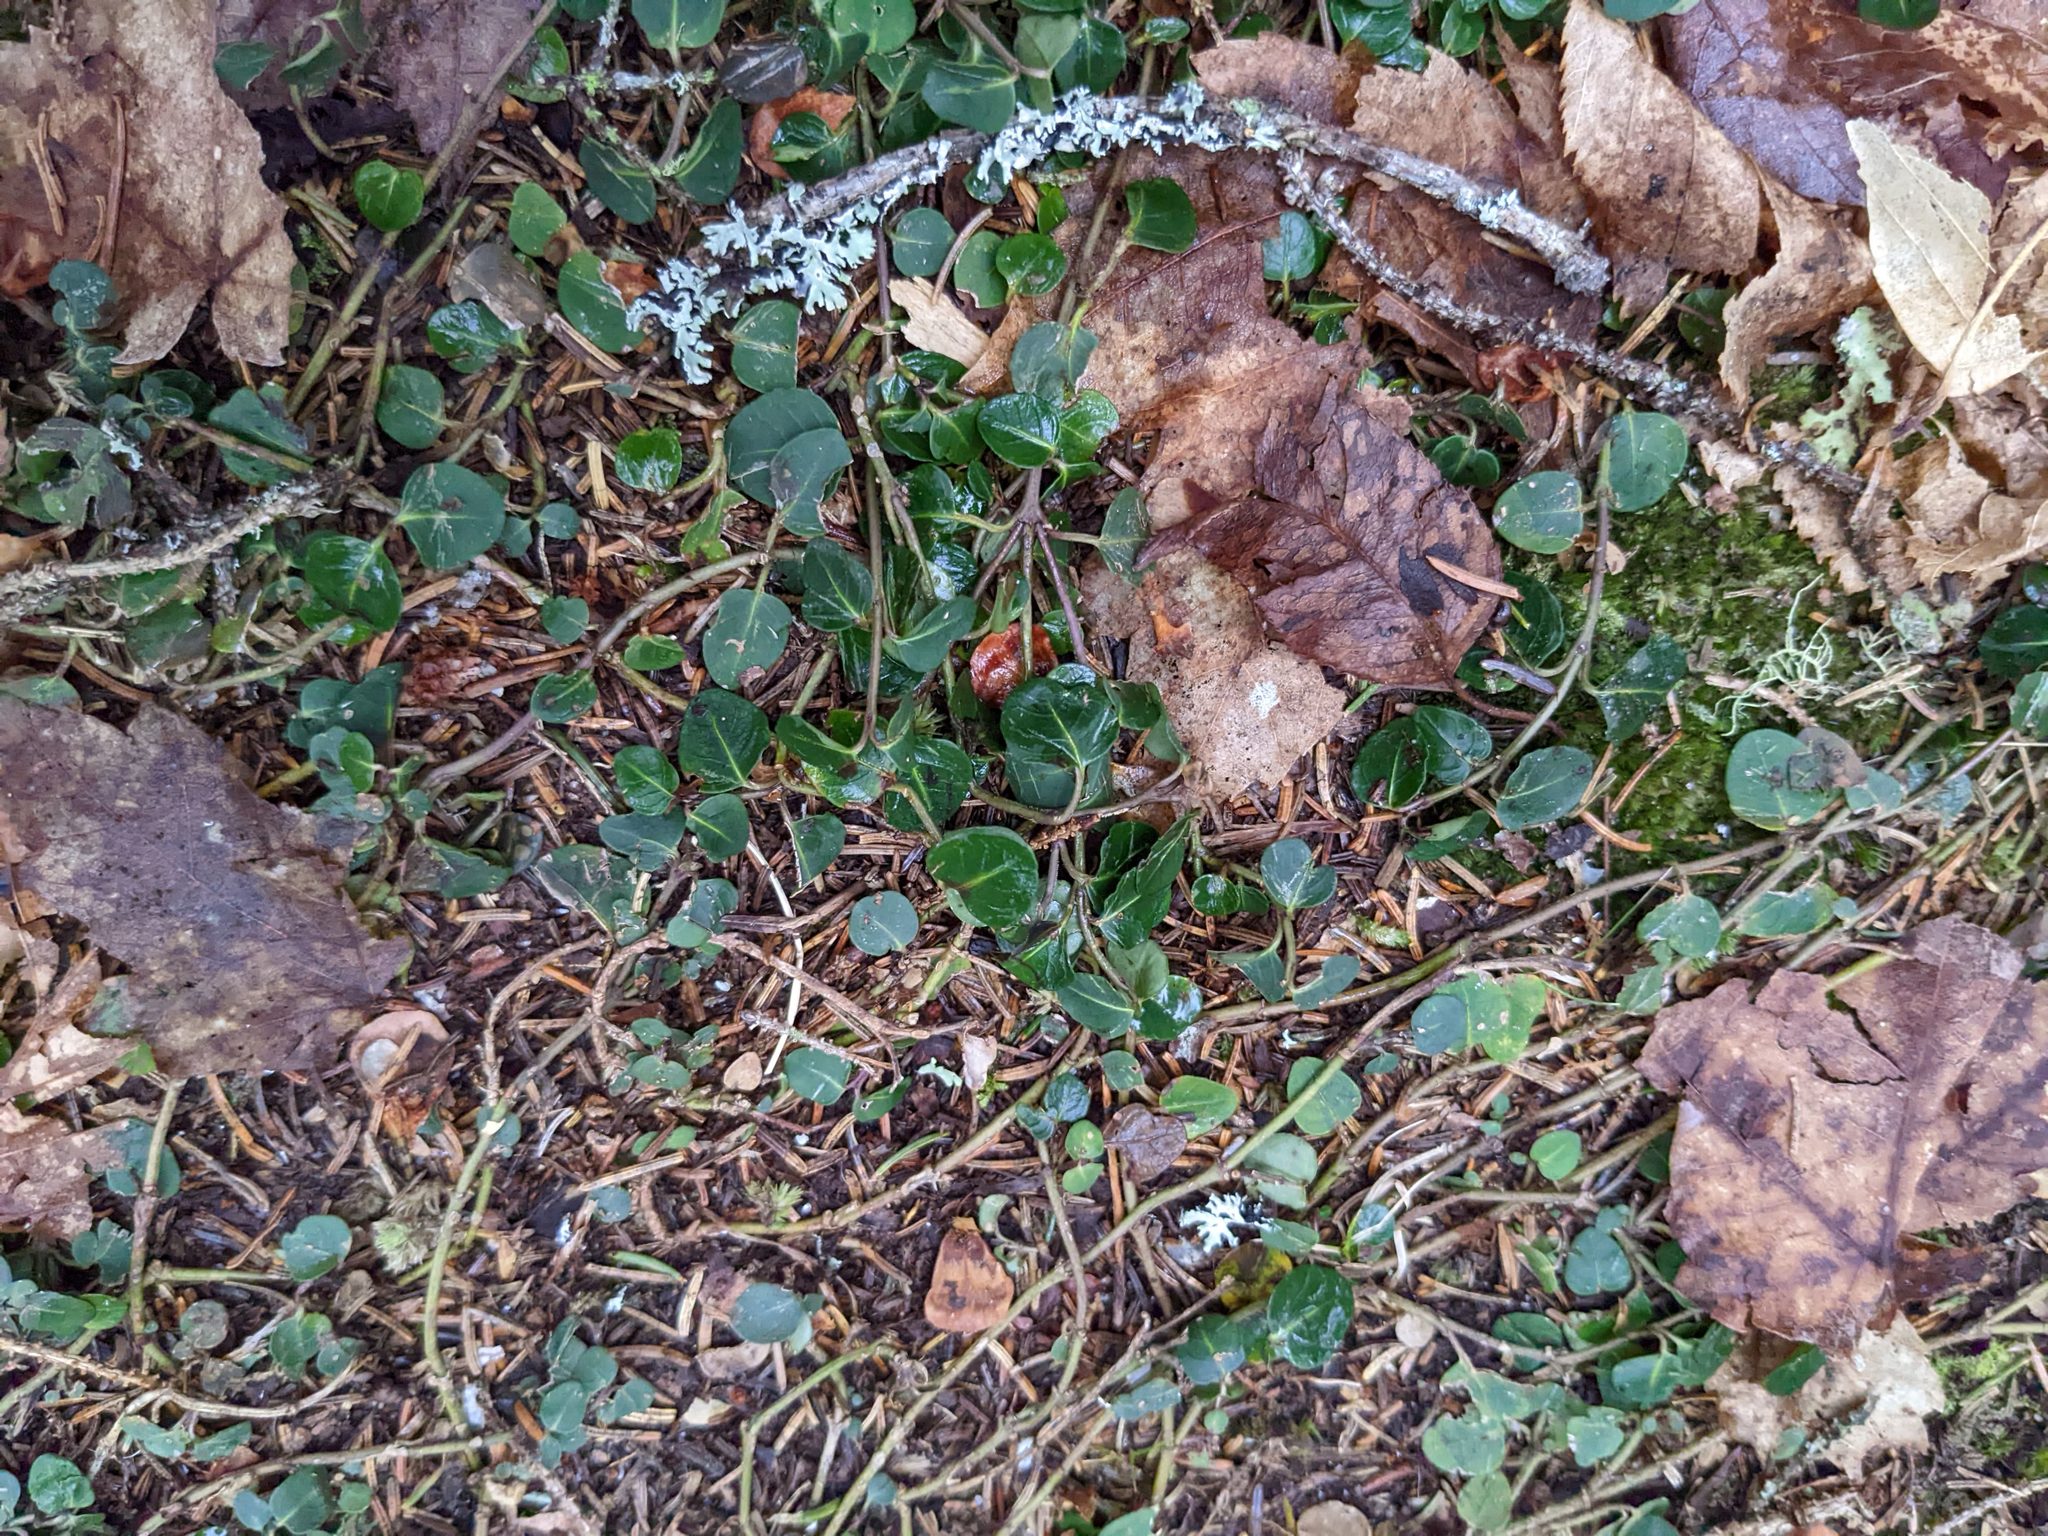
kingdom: Plantae
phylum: Tracheophyta
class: Magnoliopsida
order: Gentianales
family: Rubiaceae
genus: Mitchella
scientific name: Mitchella repens
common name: Partridge-berry
